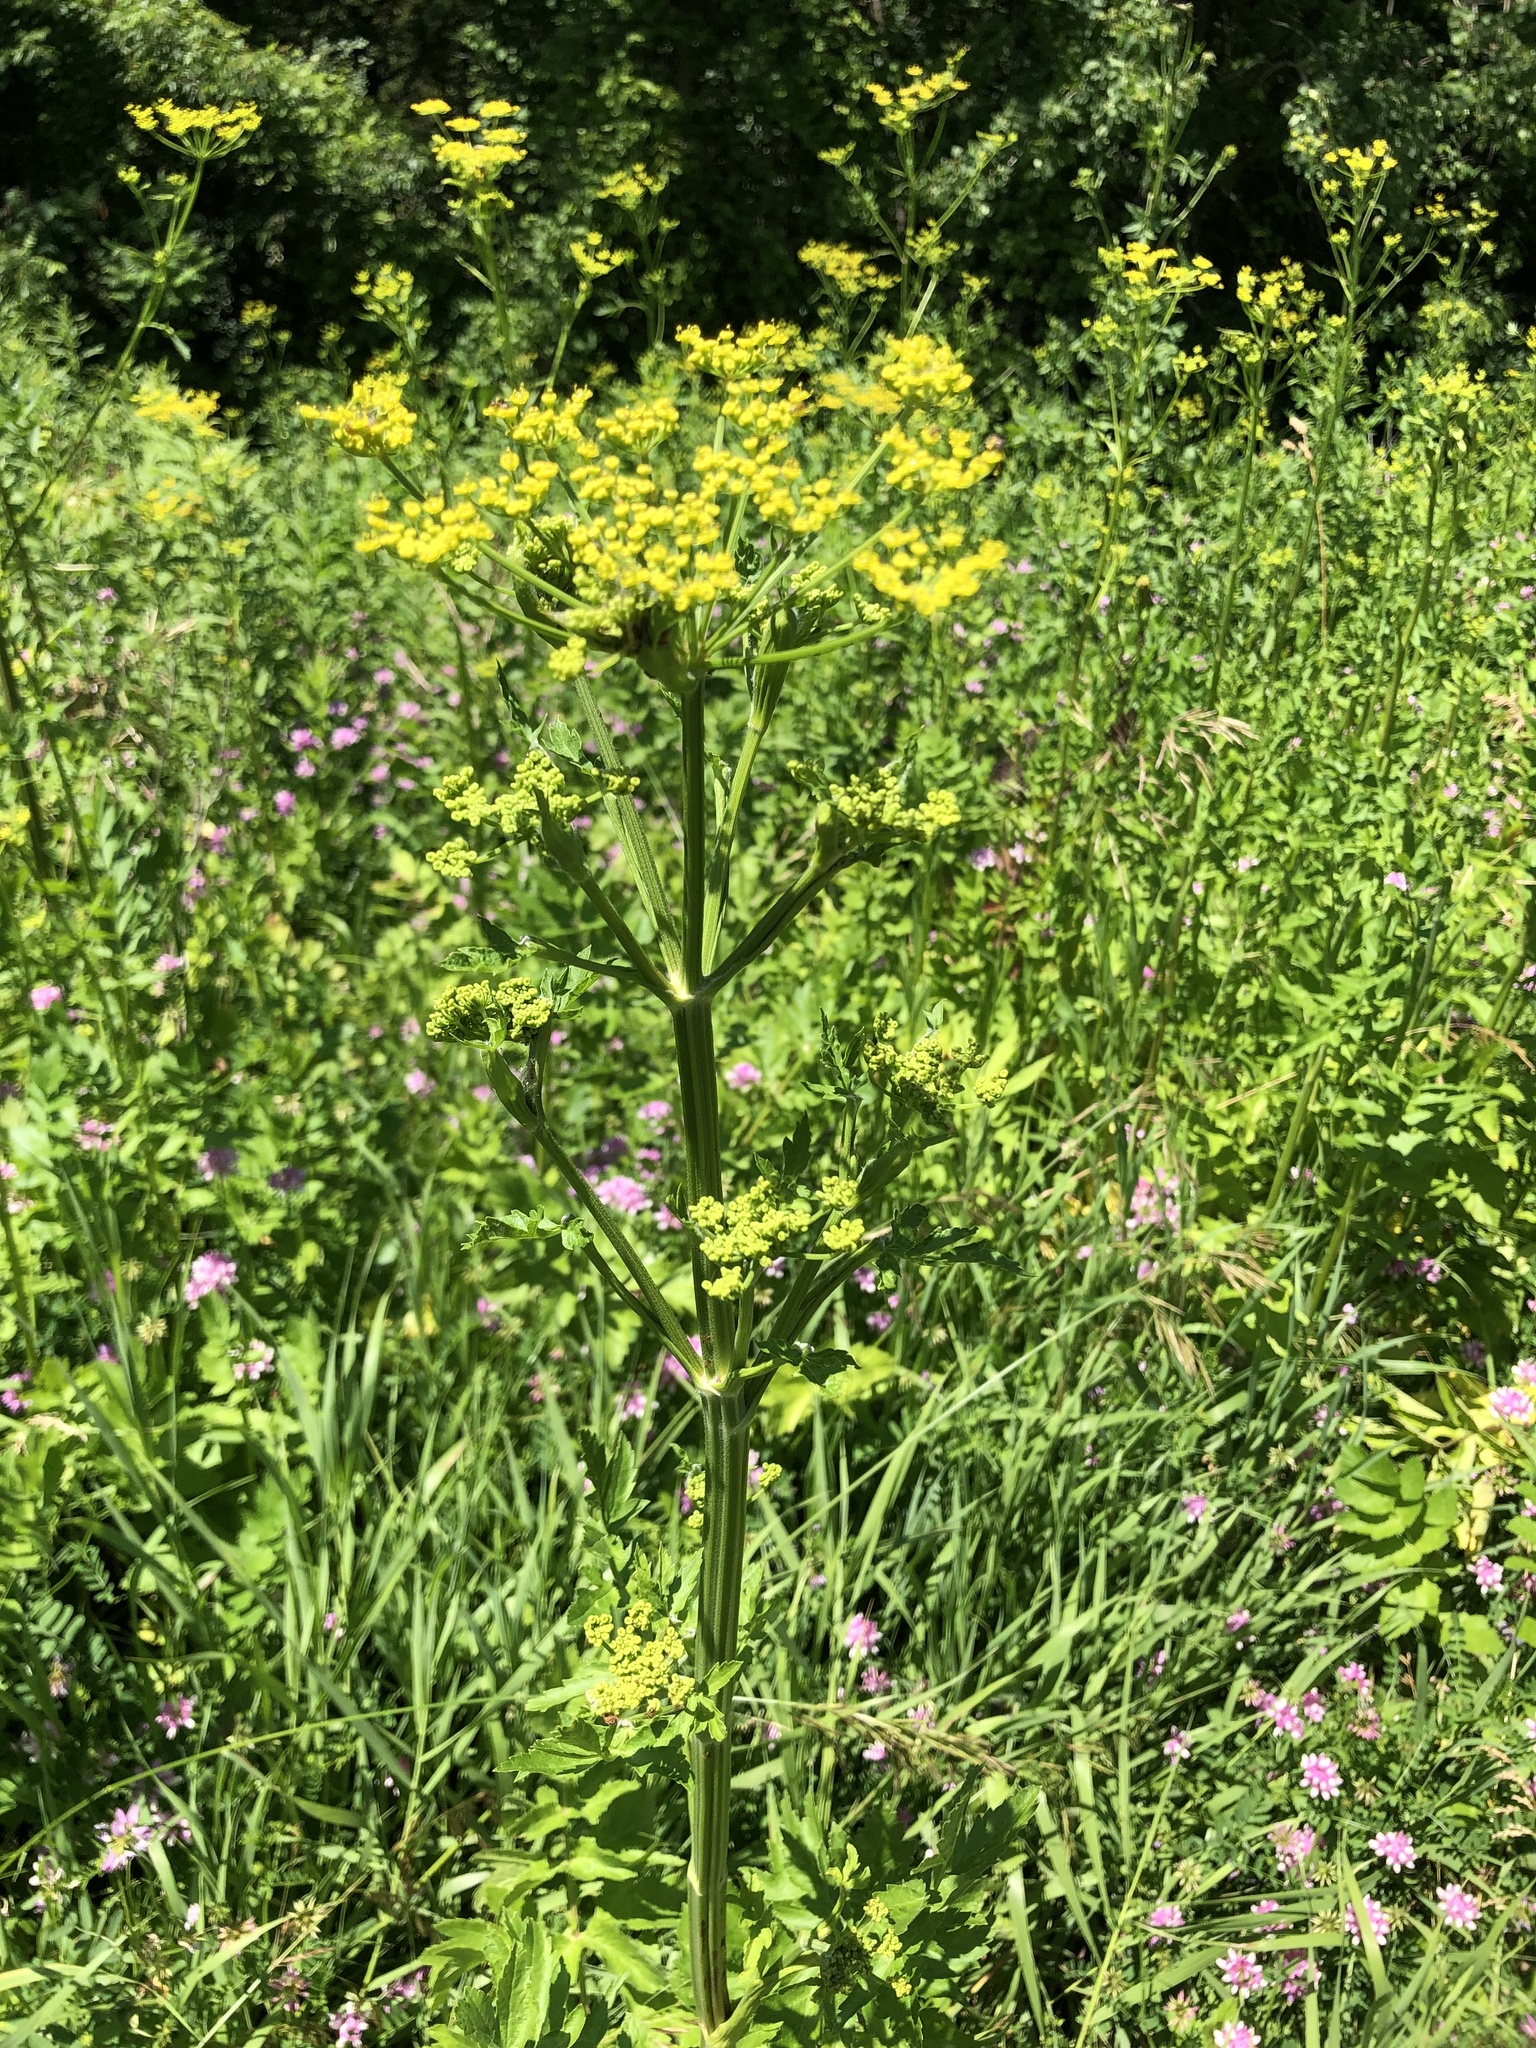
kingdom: Plantae
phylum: Tracheophyta
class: Magnoliopsida
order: Apiales
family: Apiaceae
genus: Pastinaca
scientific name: Pastinaca sativa
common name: Wild parsnip
